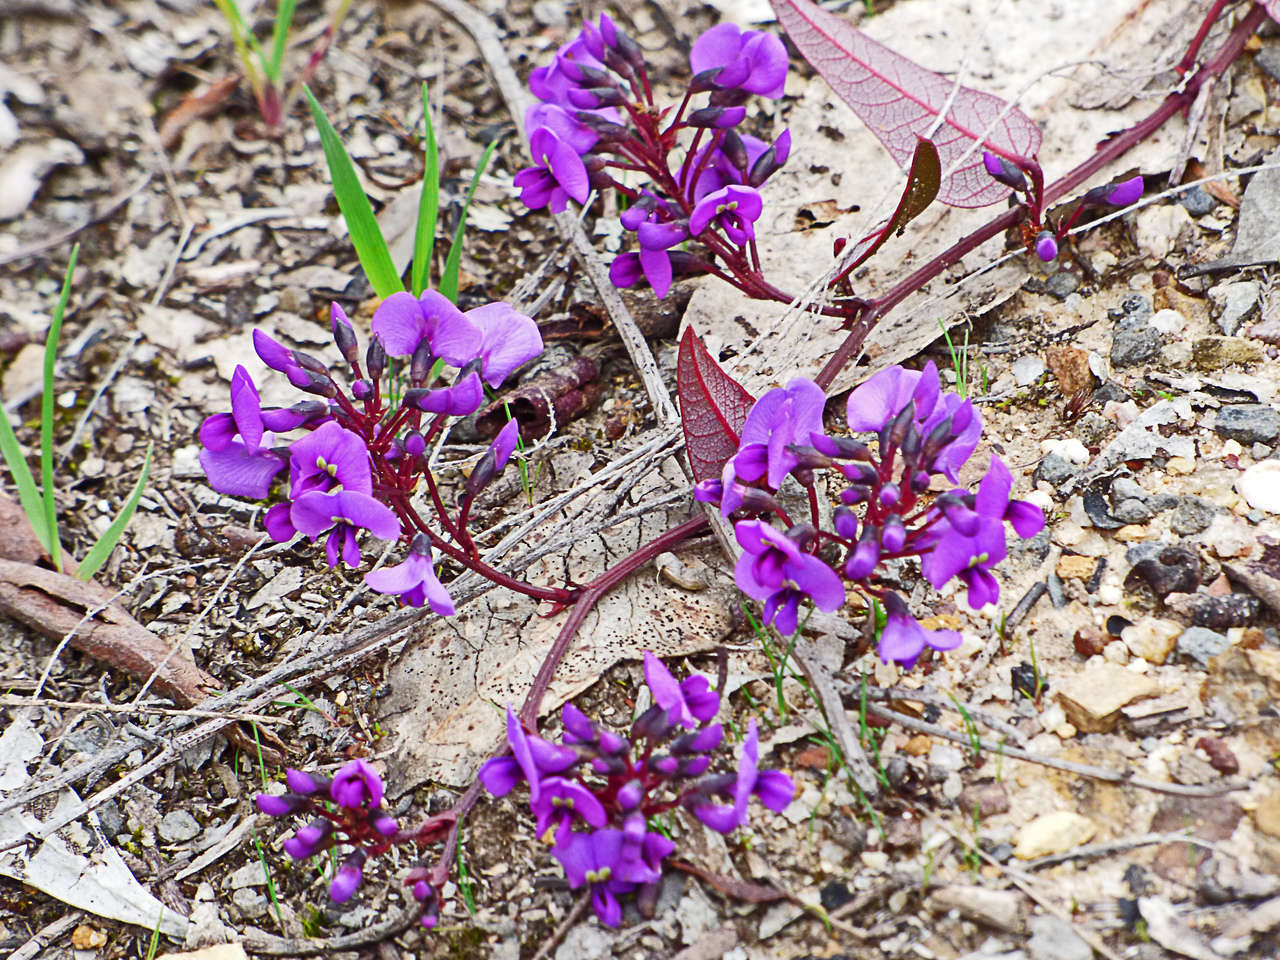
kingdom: Plantae
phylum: Tracheophyta
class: Magnoliopsida
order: Fabales
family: Fabaceae
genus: Hardenbergia
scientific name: Hardenbergia violacea
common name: Coral-pea
